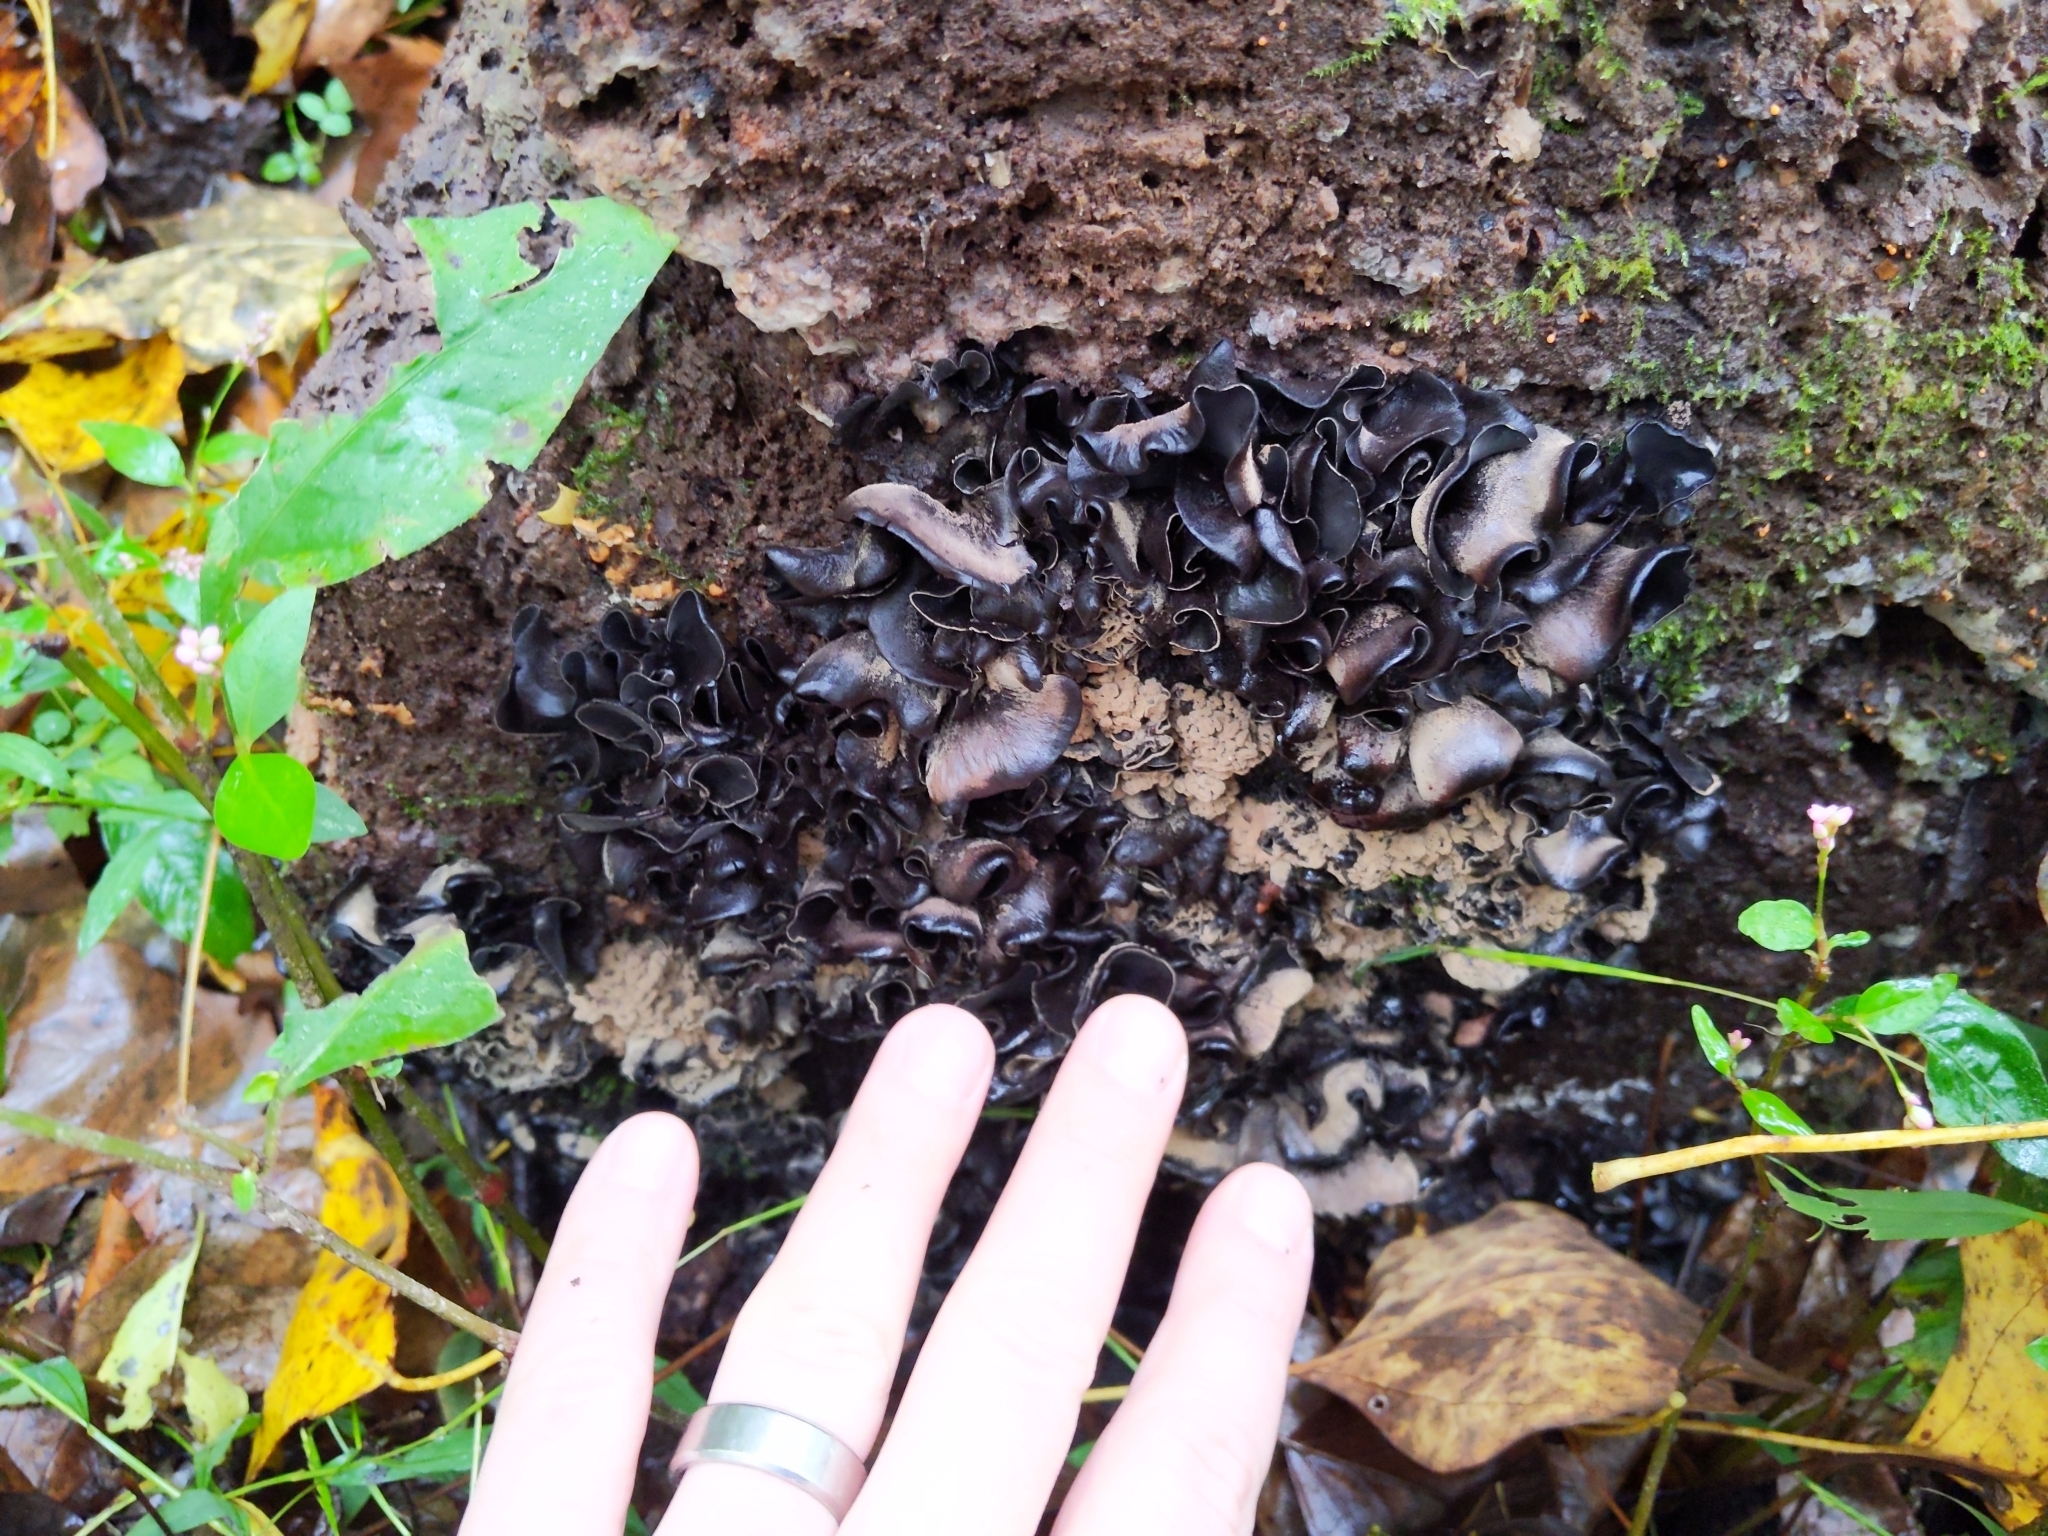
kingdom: Fungi
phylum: Ascomycota
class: Leotiomycetes
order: Helotiales
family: Cordieritidaceae
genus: Diplocarpa
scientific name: Diplocarpa irregularis
